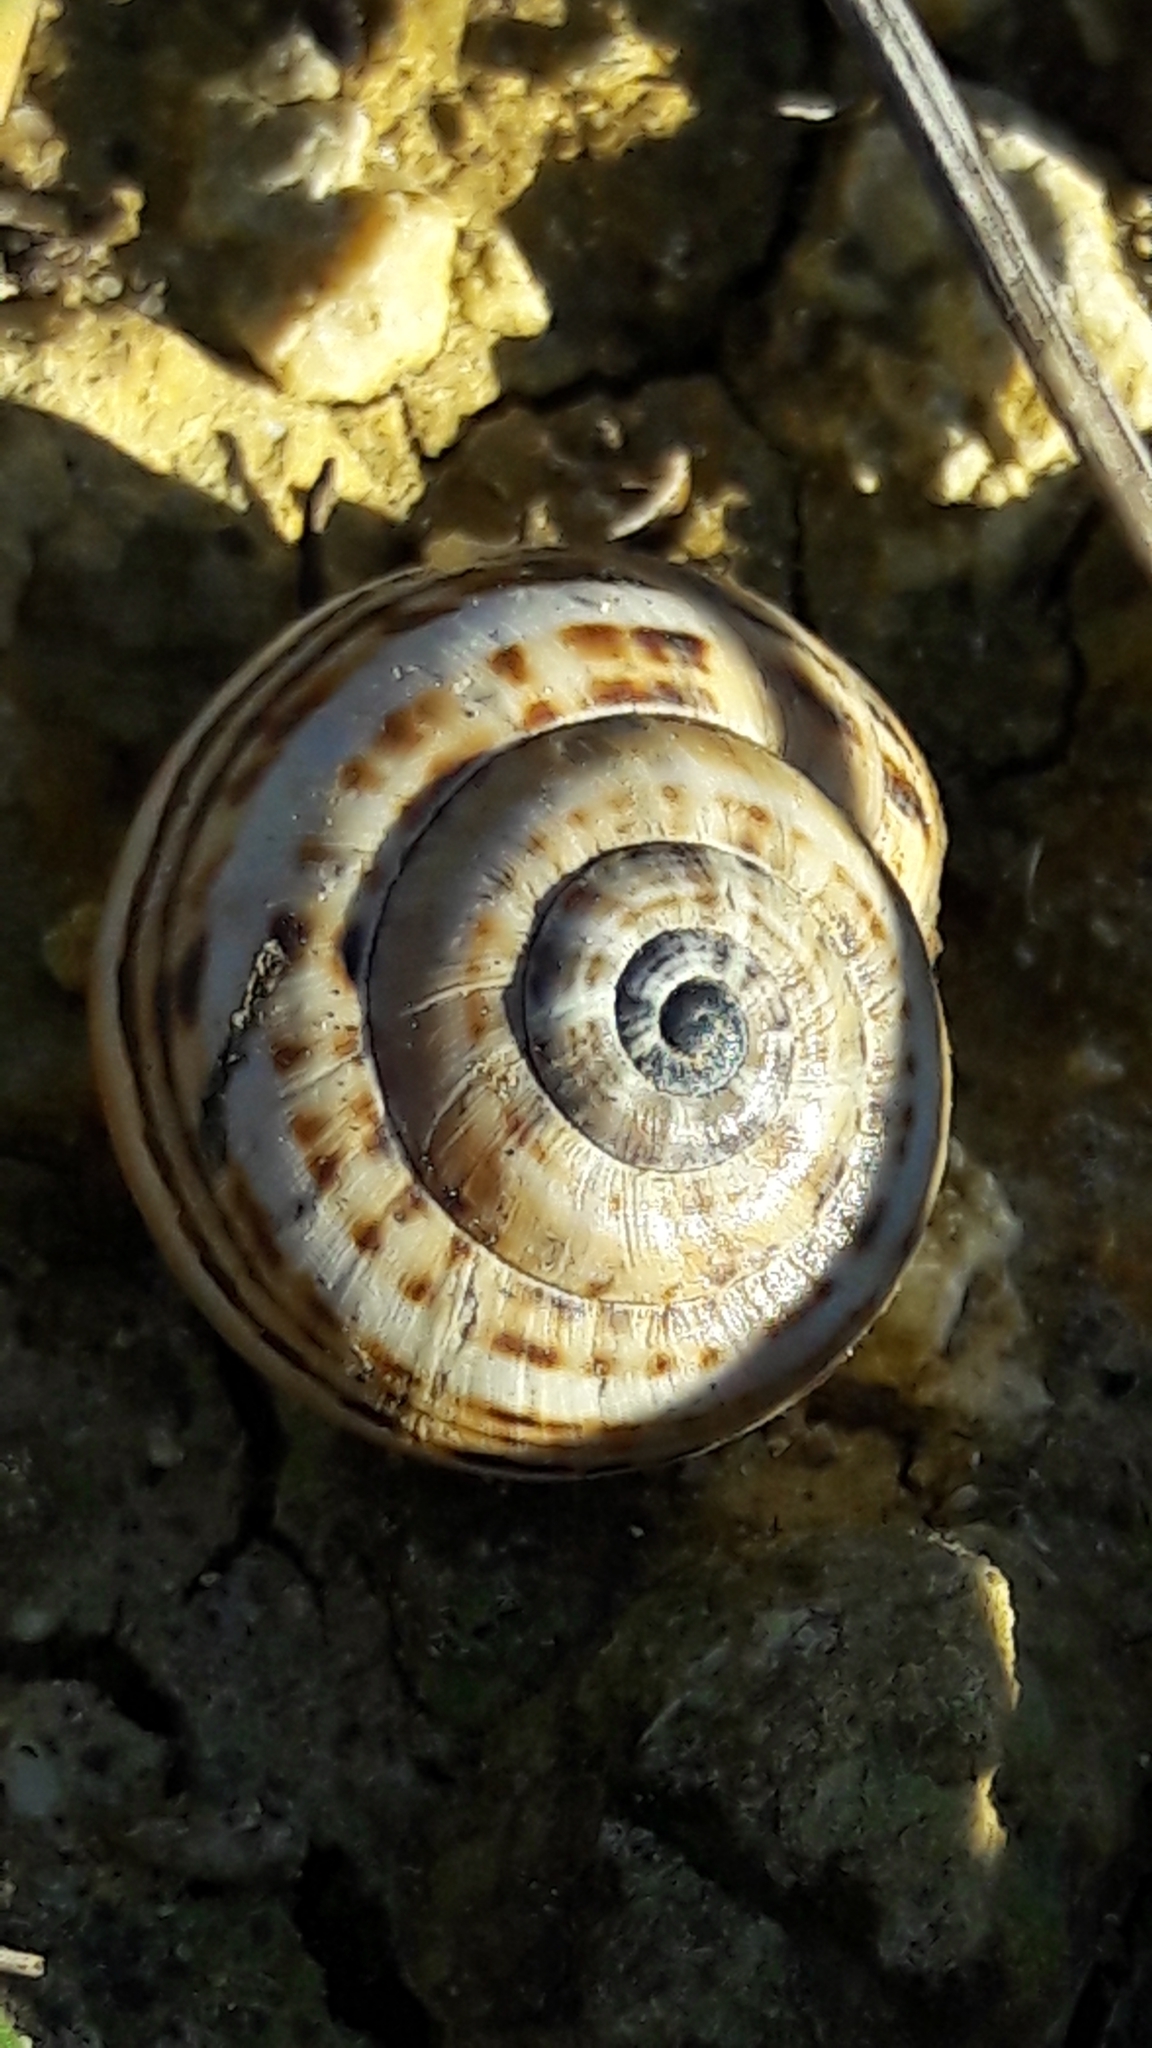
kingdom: Animalia
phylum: Mollusca
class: Gastropoda
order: Stylommatophora
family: Helicidae
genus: Theba
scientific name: Theba pisana
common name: White snail
